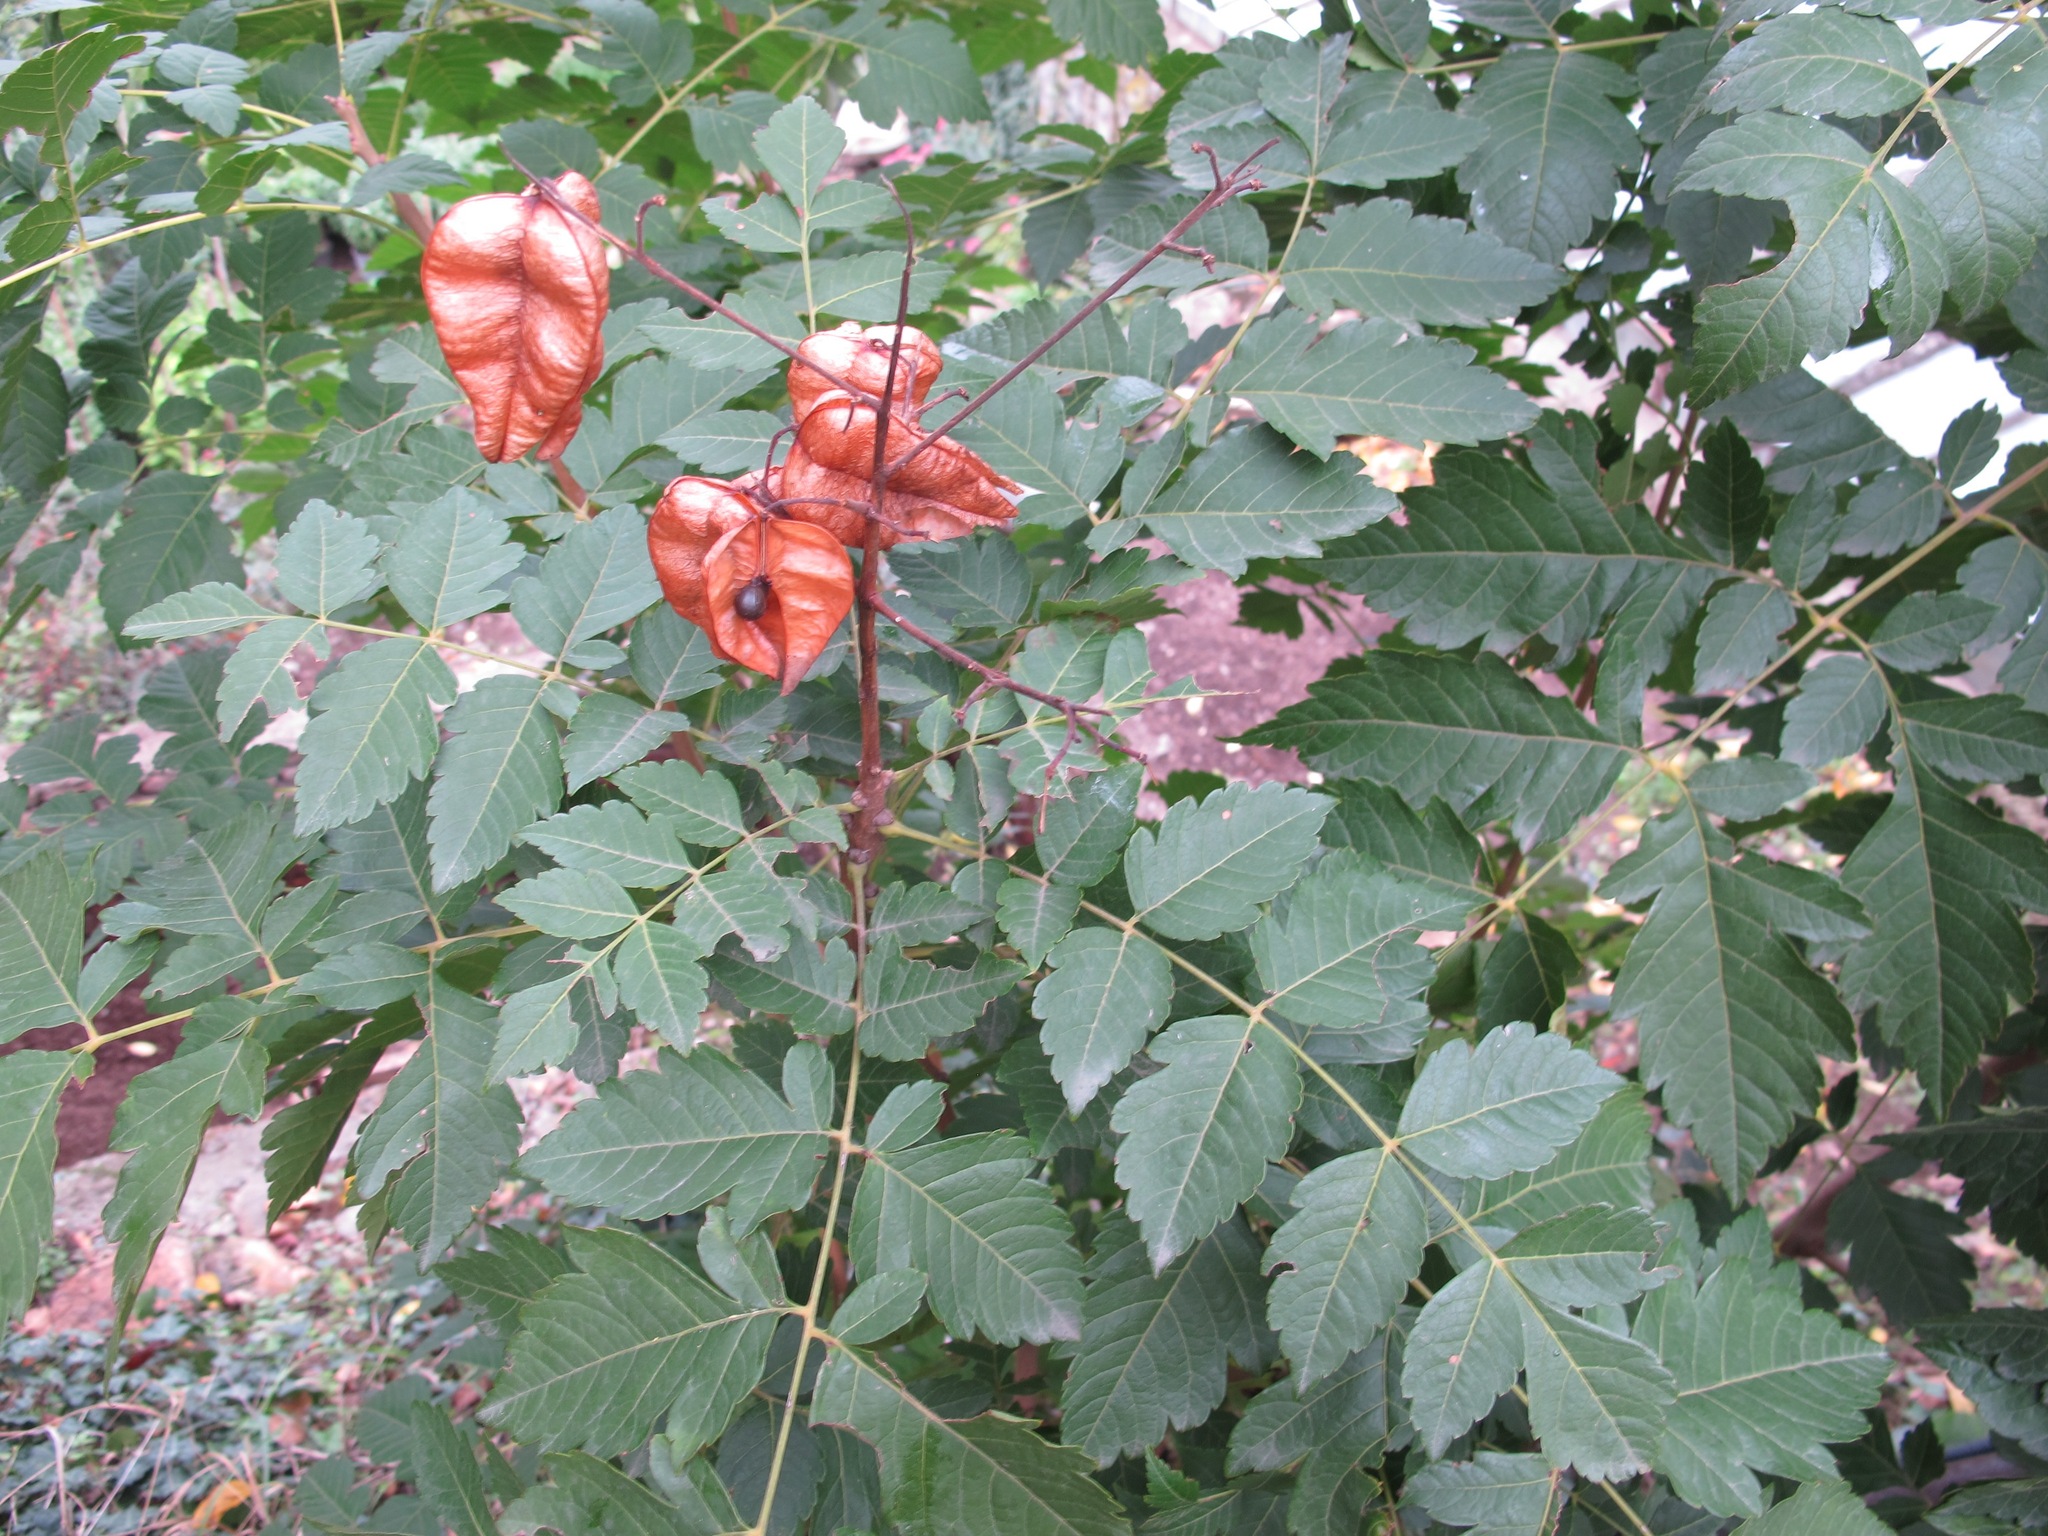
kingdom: Plantae
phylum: Tracheophyta
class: Magnoliopsida
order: Sapindales
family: Sapindaceae
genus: Koelreuteria
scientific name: Koelreuteria paniculata
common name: Pride-of-india
